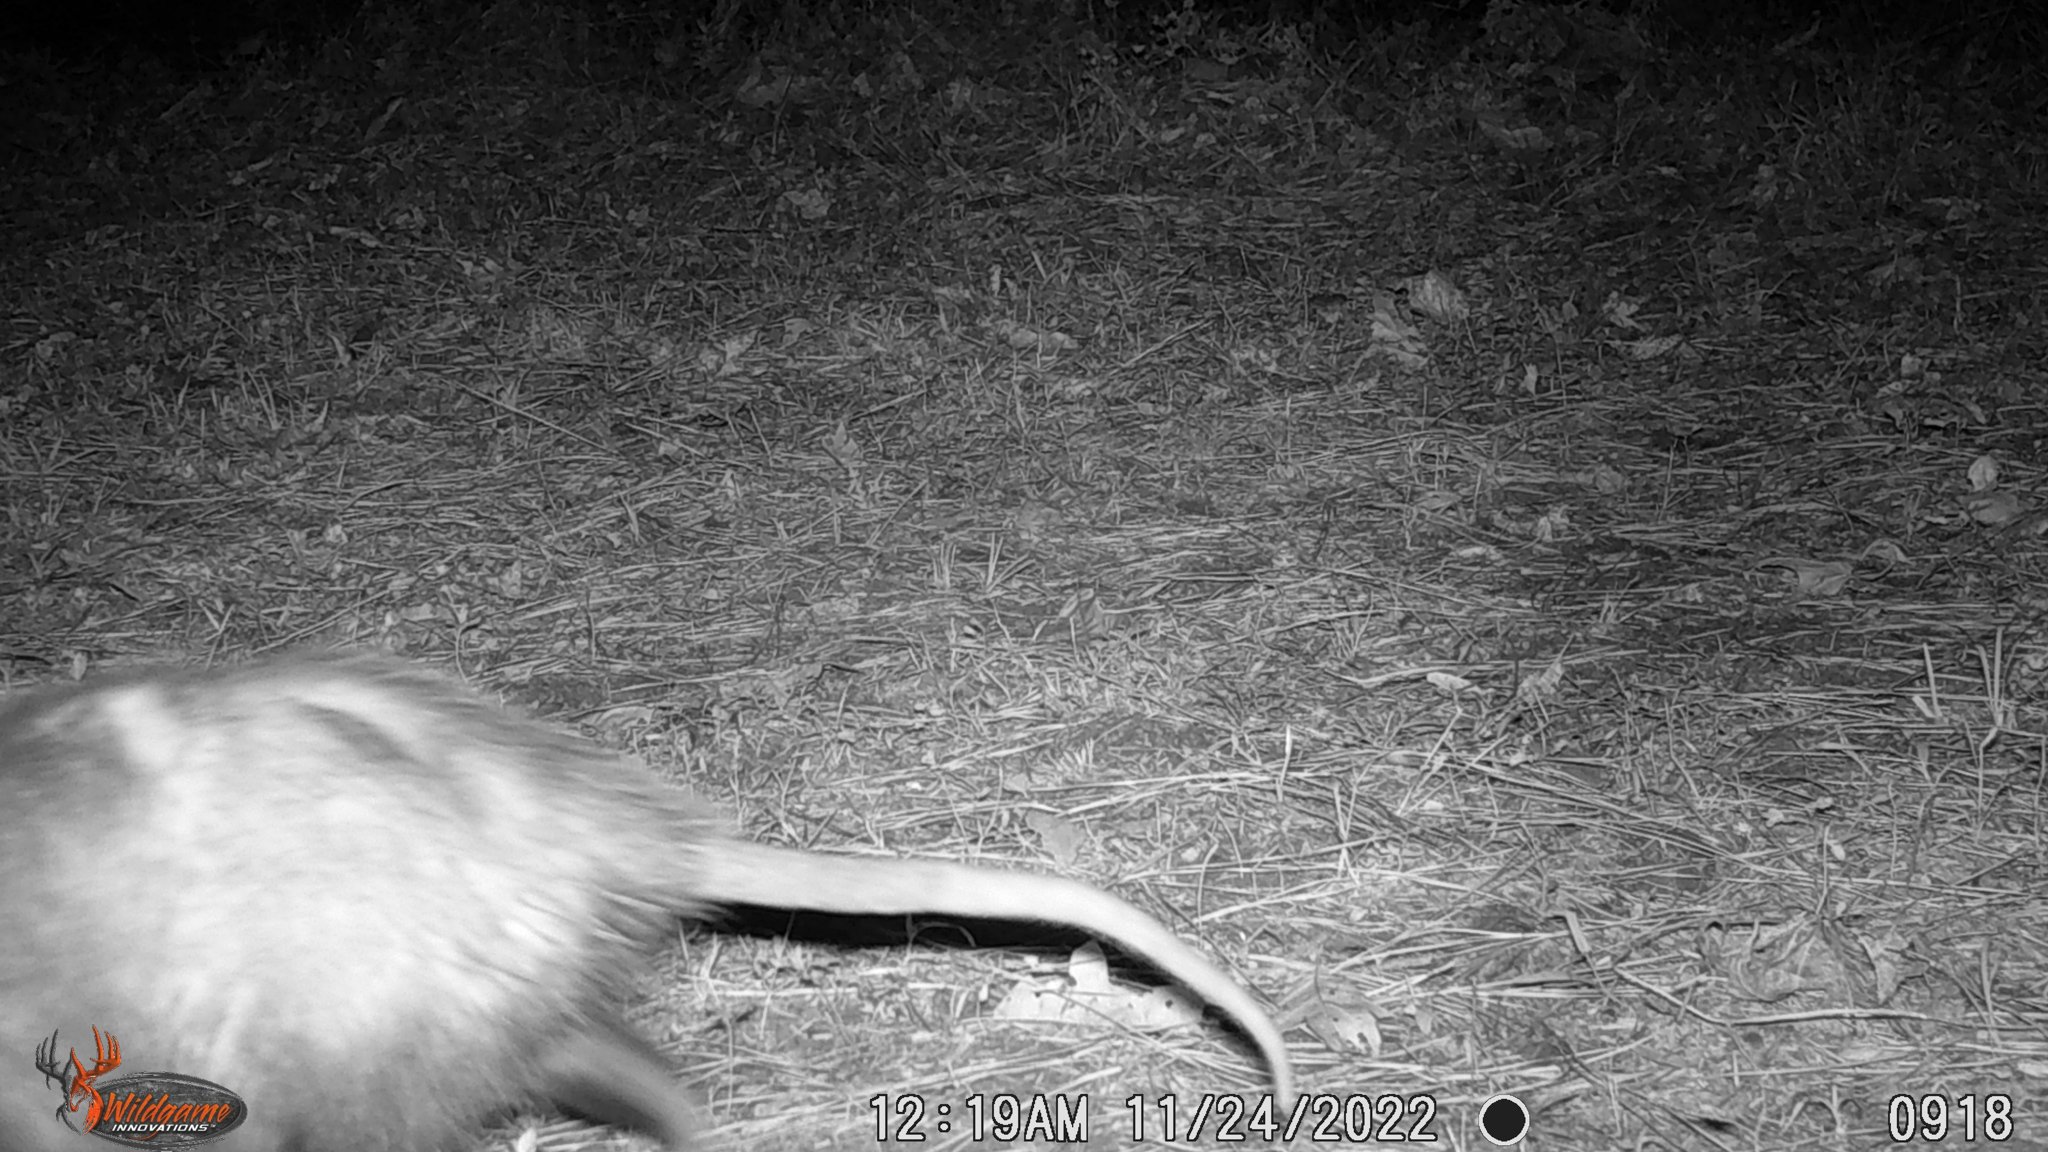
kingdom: Animalia
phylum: Chordata
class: Mammalia
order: Didelphimorphia
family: Didelphidae
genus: Didelphis
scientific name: Didelphis virginiana
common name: Virginia opossum
